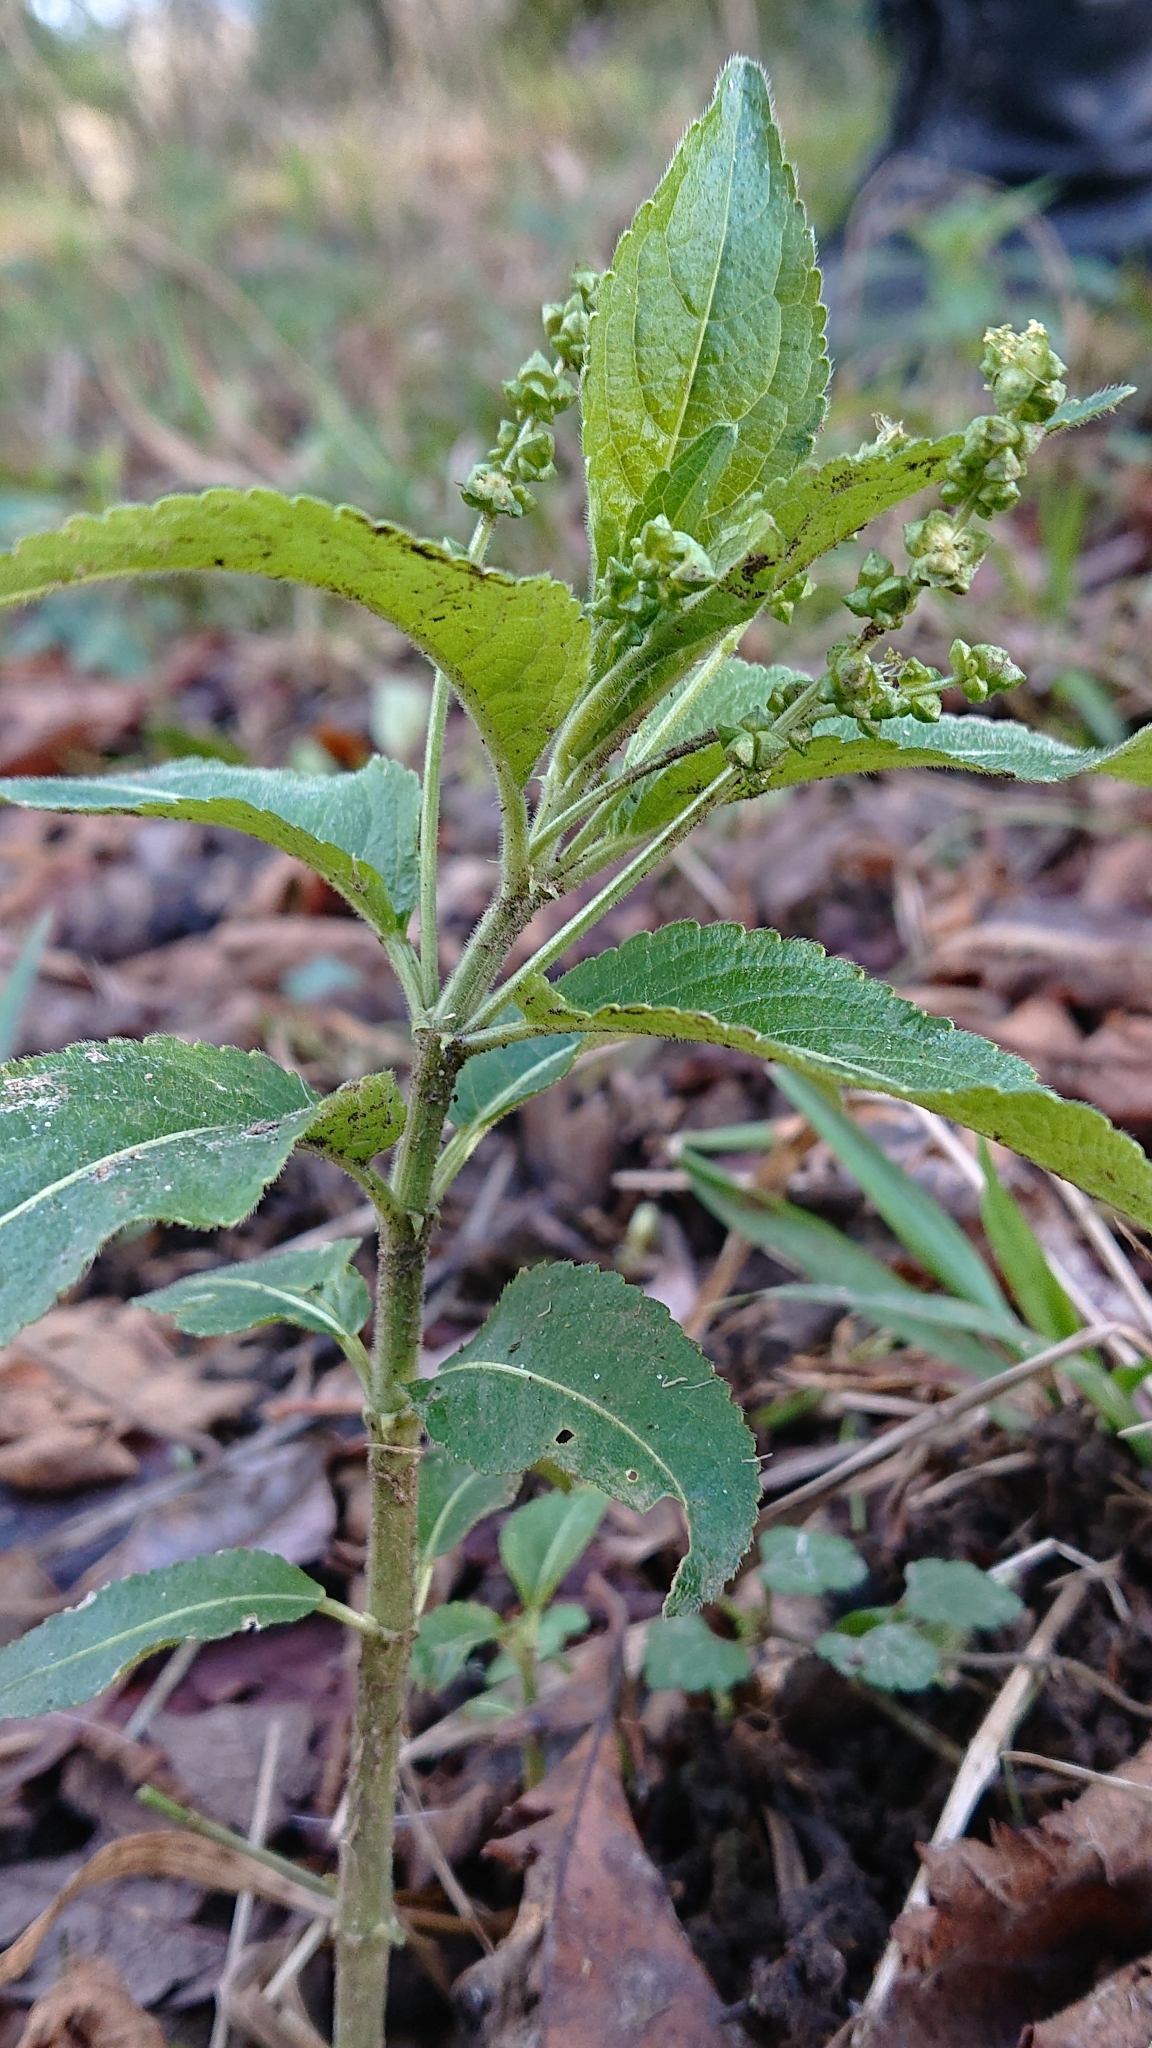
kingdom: Plantae
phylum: Tracheophyta
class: Magnoliopsida
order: Malpighiales
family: Euphorbiaceae
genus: Mercurialis
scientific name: Mercurialis perennis
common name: Dog mercury
